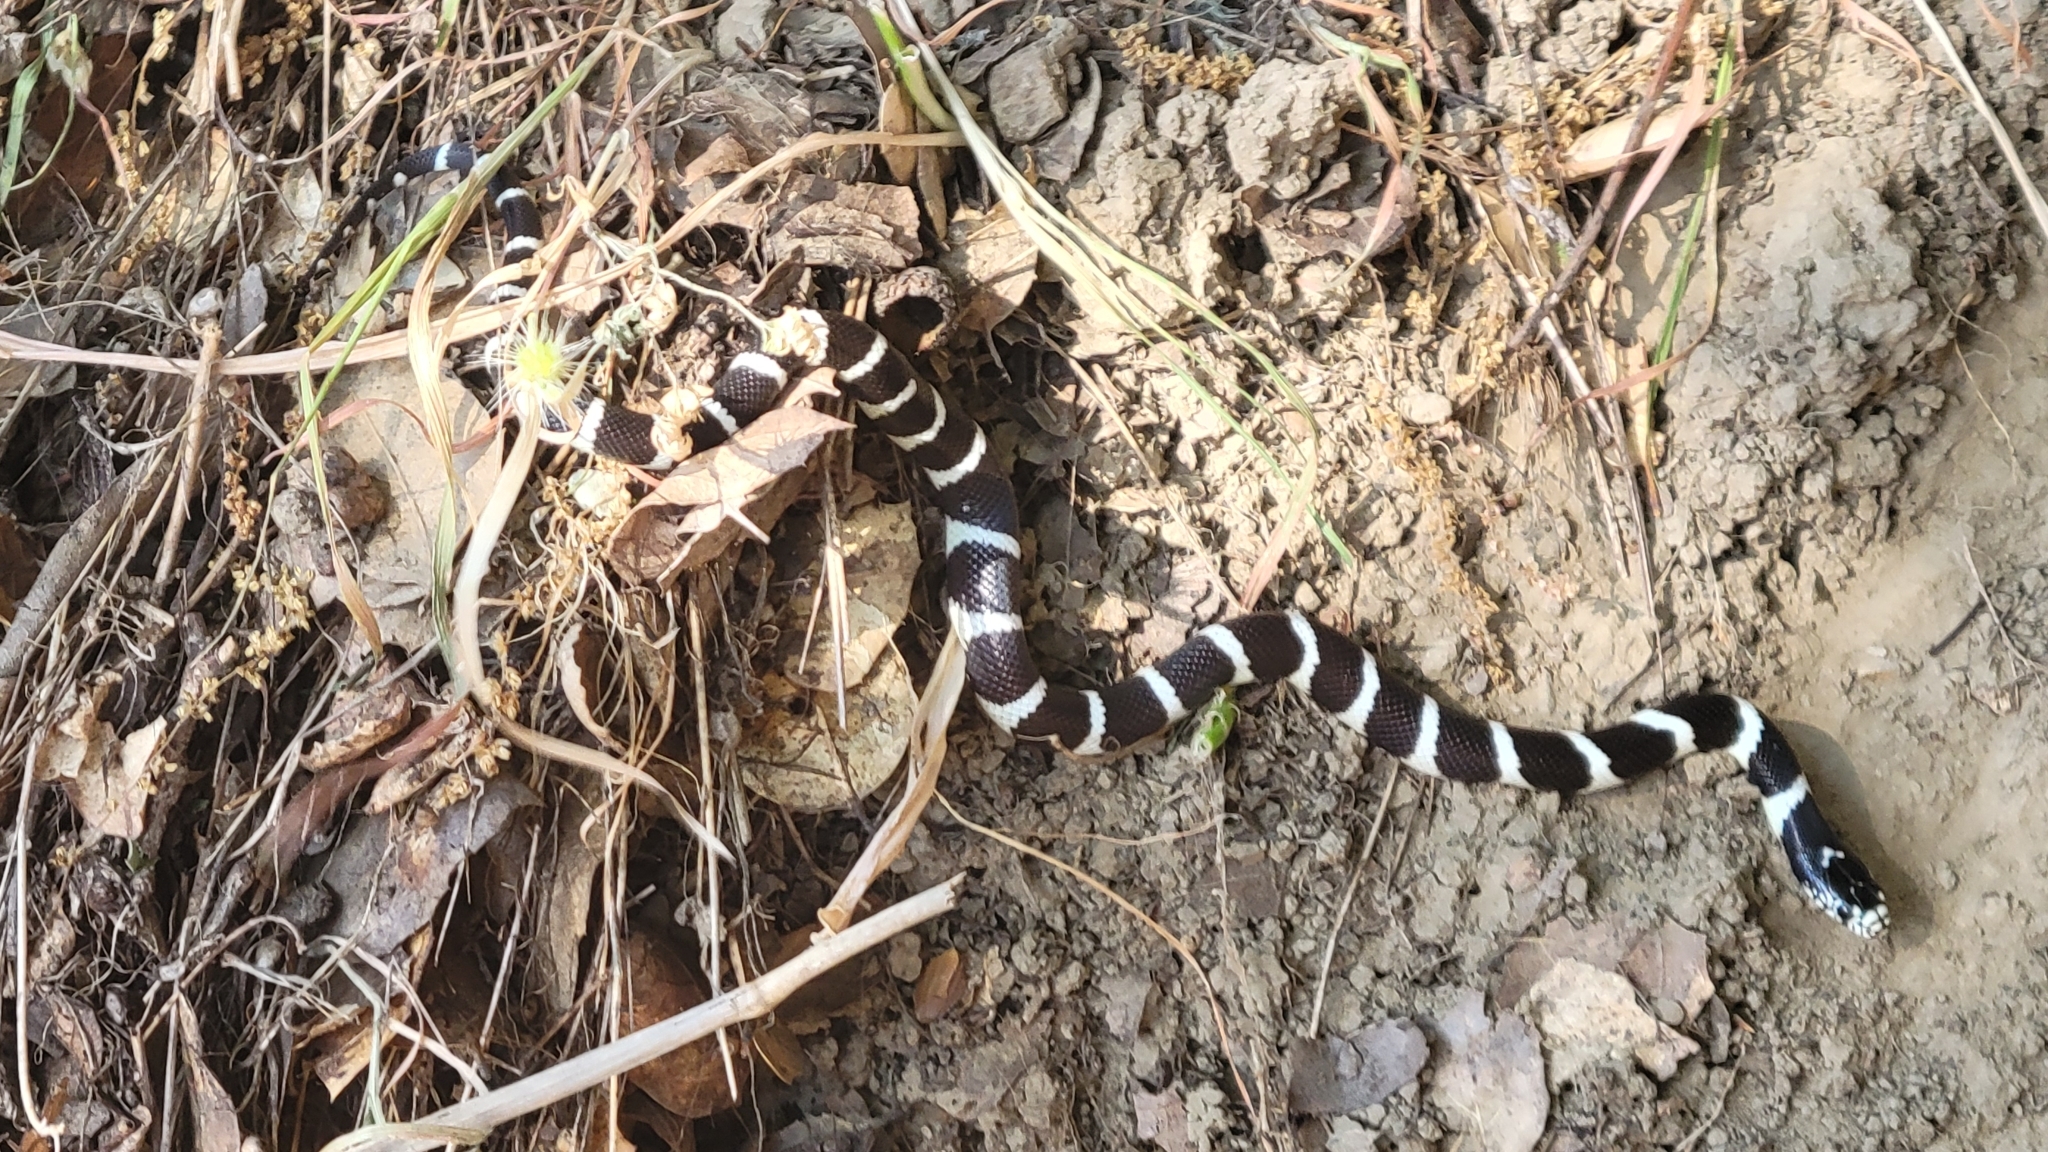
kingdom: Animalia
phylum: Chordata
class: Squamata
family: Colubridae
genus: Lampropeltis
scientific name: Lampropeltis californiae
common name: California kingsnake
